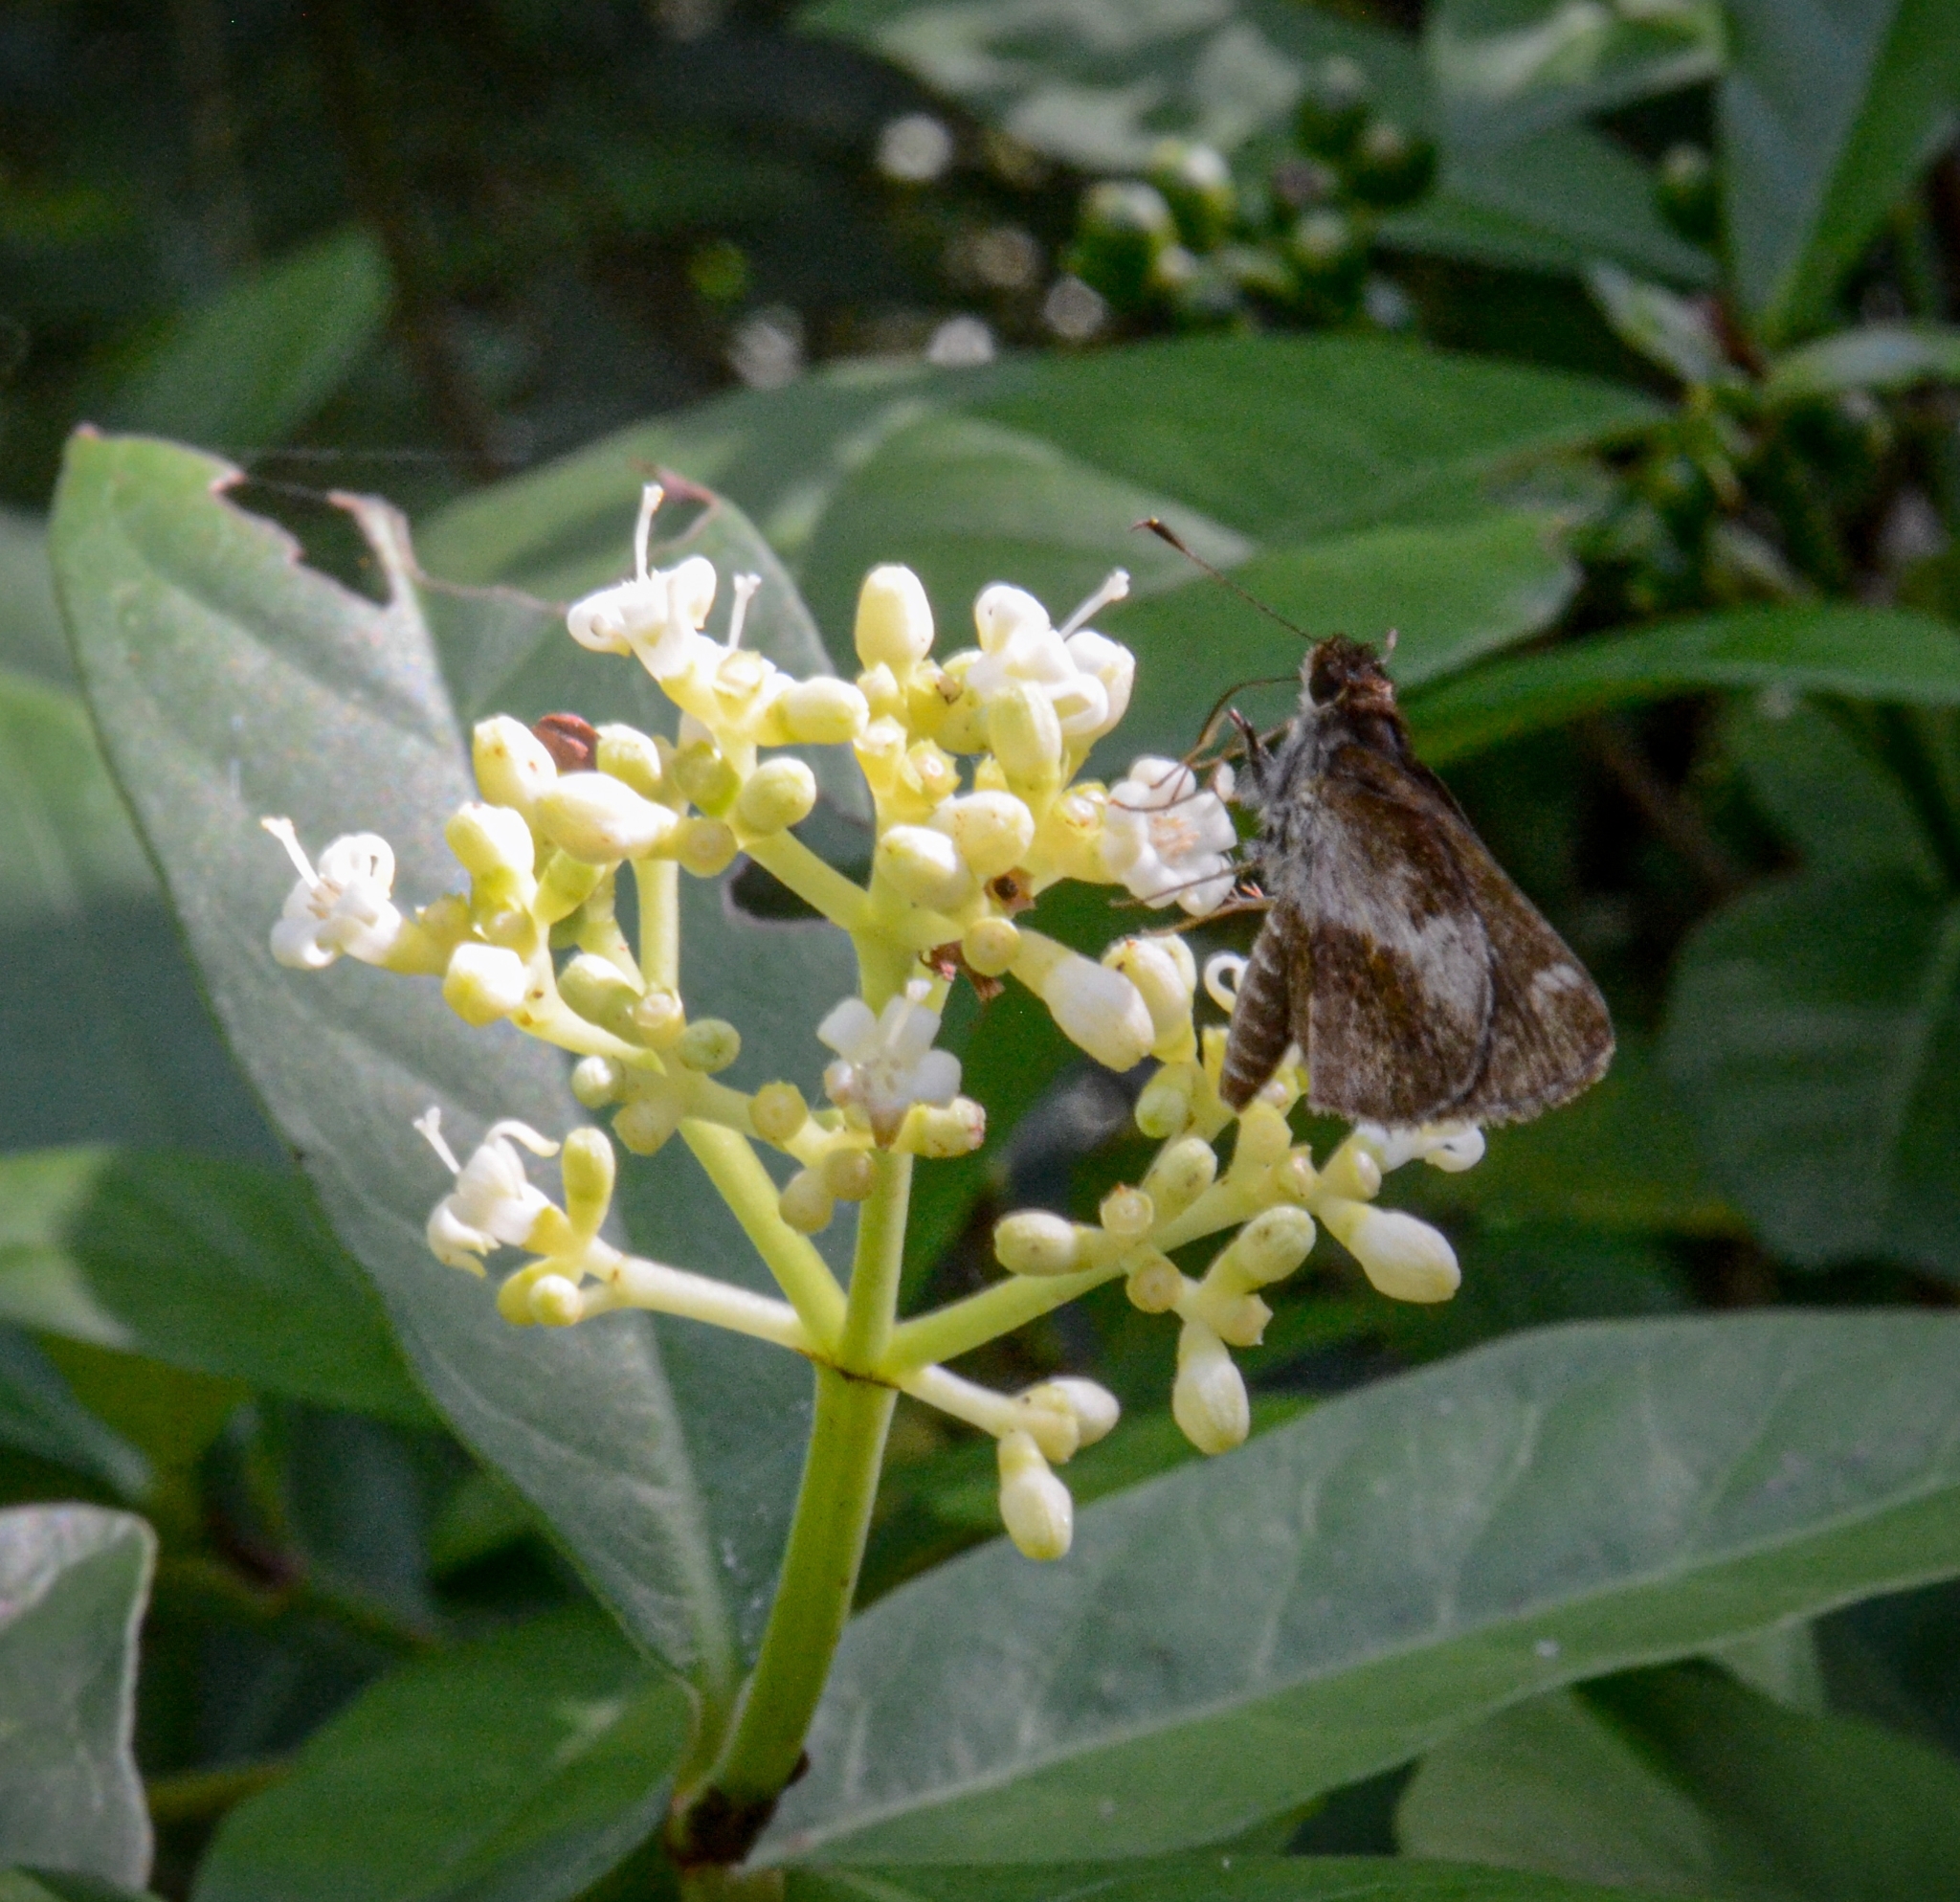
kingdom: Animalia
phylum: Arthropoda
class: Insecta
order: Lepidoptera
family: Hesperiidae
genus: Callimormus
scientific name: Callimormus
